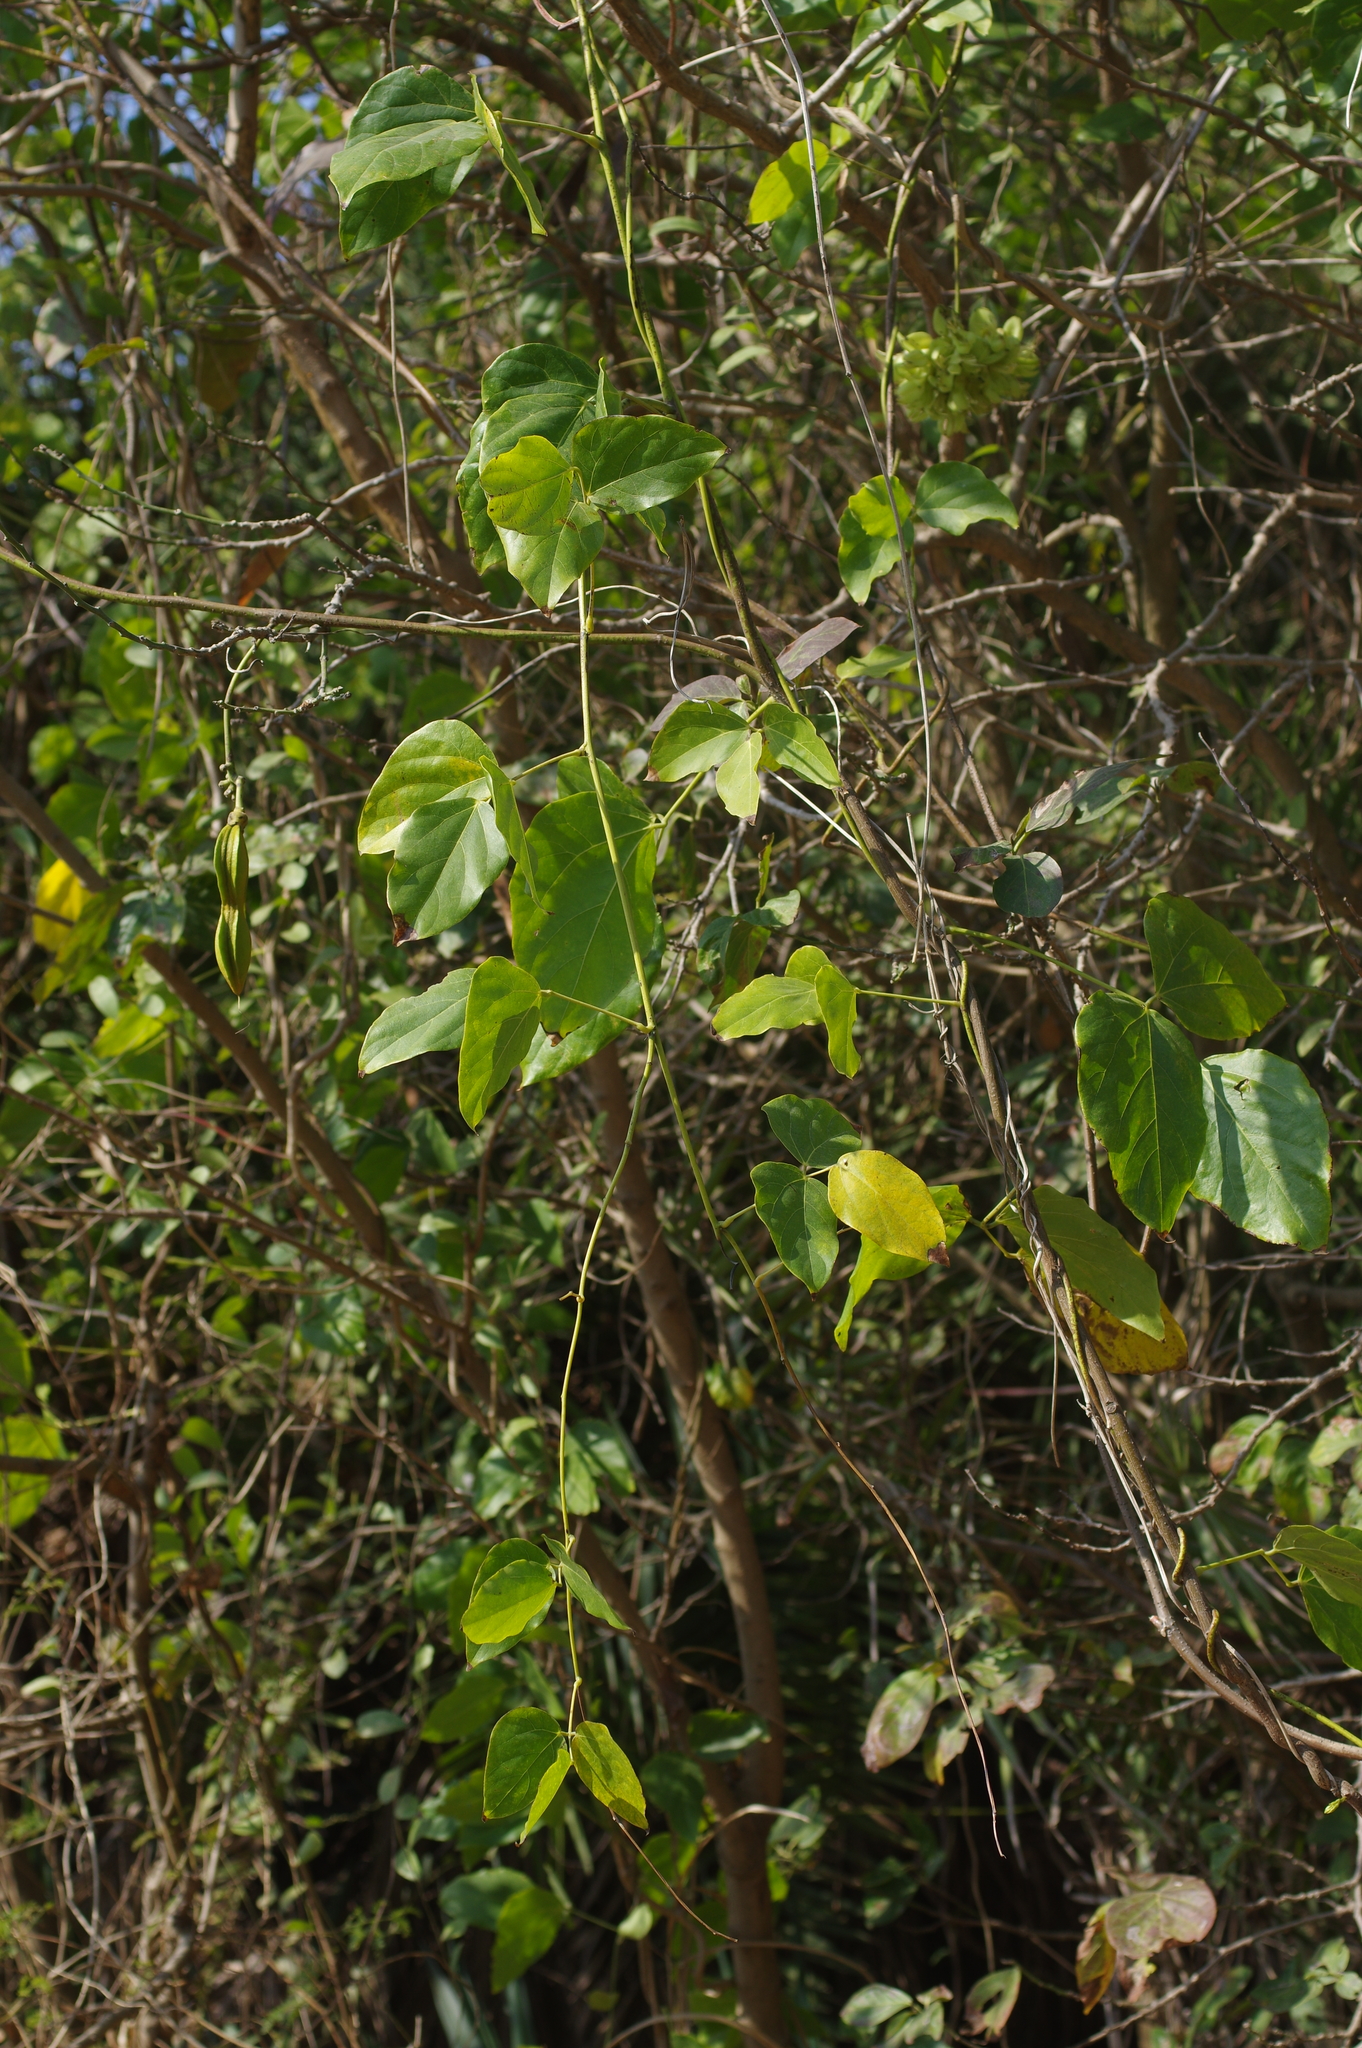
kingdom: Plantae
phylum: Tracheophyta
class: Magnoliopsida
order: Fabales
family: Fabaceae
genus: Mucuna
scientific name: Mucuna gigantea
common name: Black-bean
